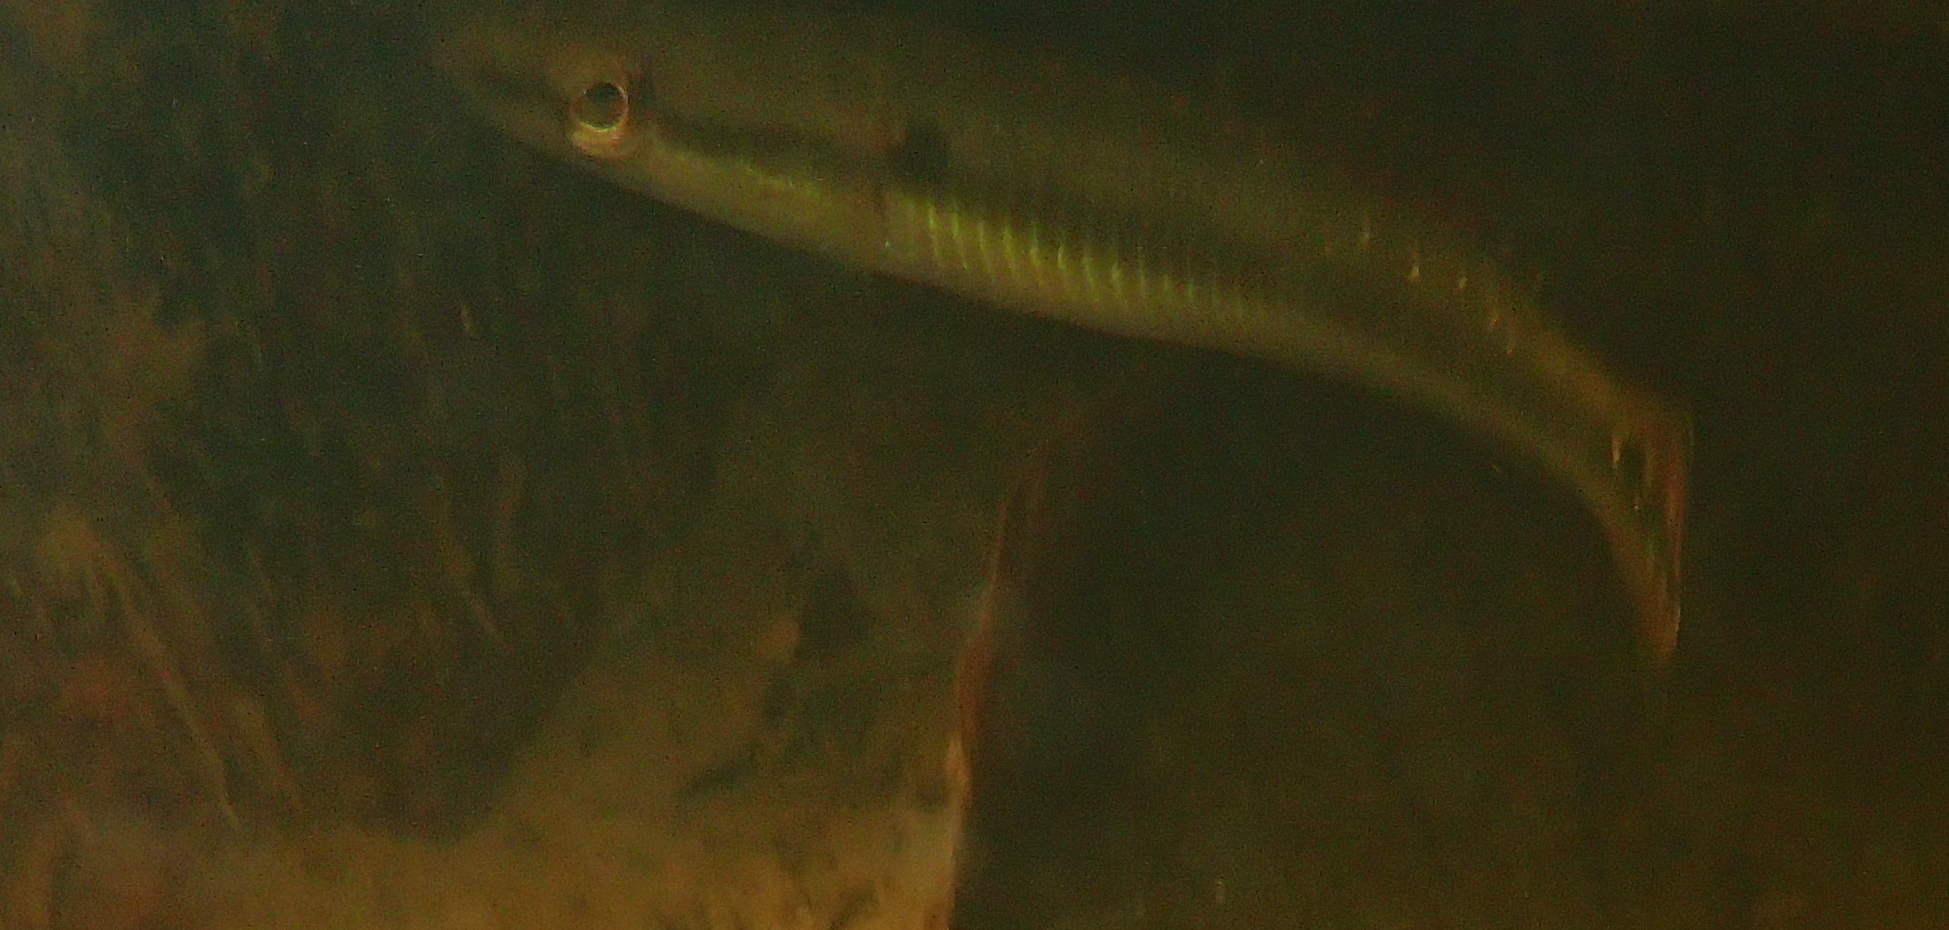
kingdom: Animalia
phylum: Chordata
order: Perciformes
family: Cichlidae
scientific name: Cichlidae
